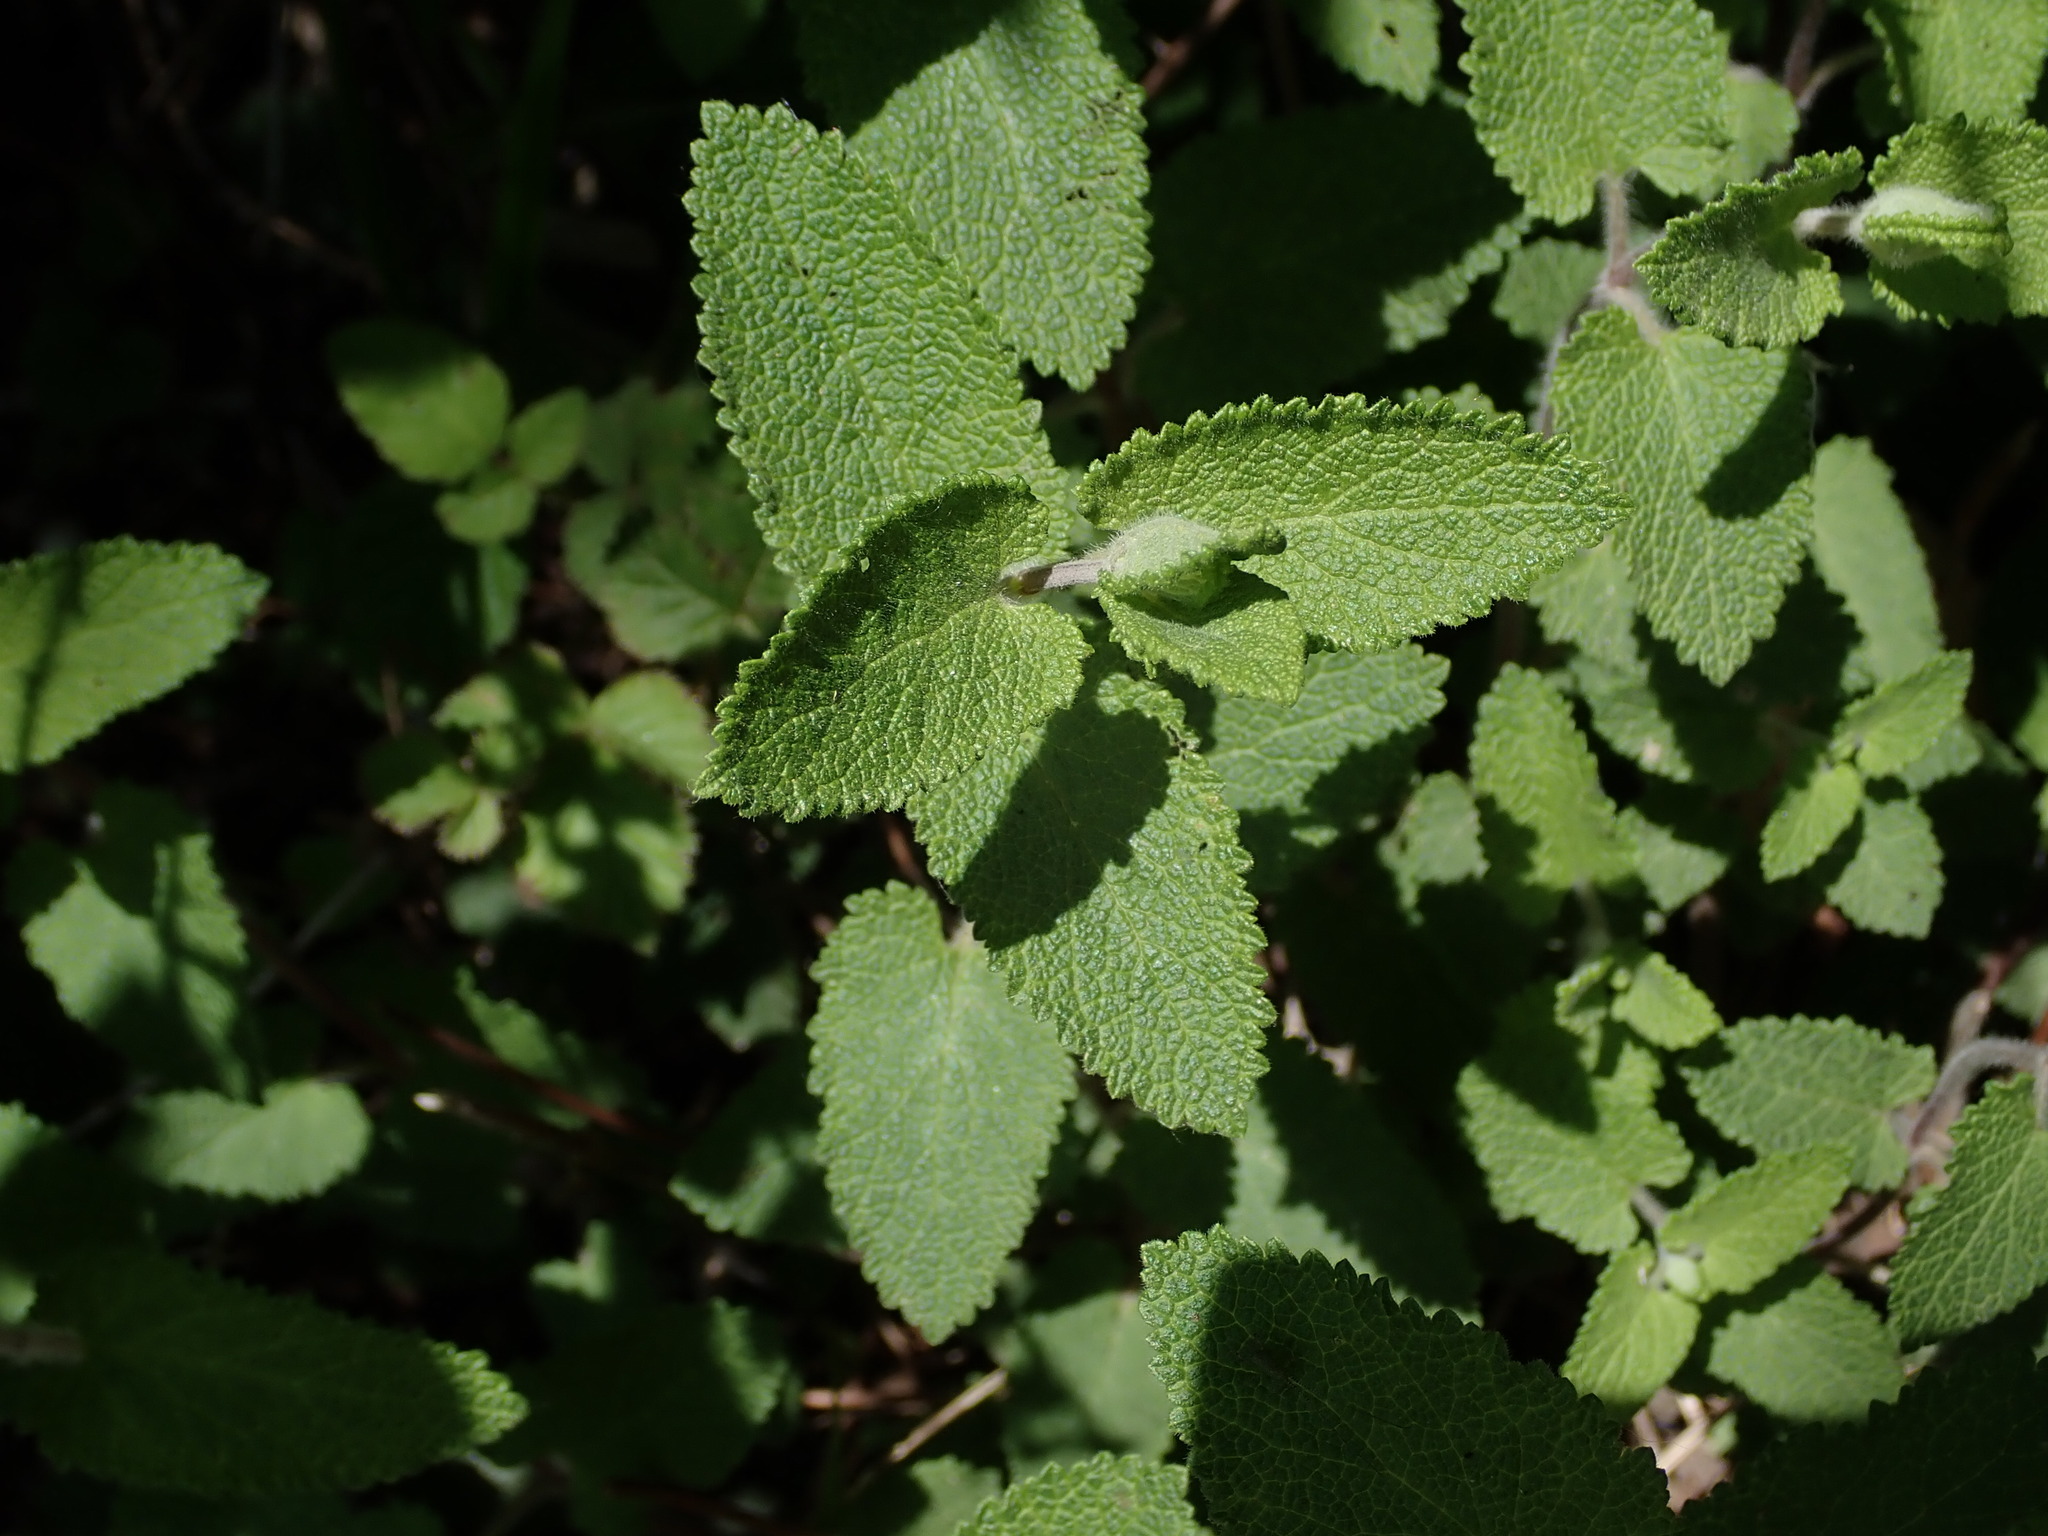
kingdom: Plantae
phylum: Tracheophyta
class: Magnoliopsida
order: Lamiales
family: Lamiaceae
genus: Teucrium
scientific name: Teucrium scorodonia
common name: Woodland germander
